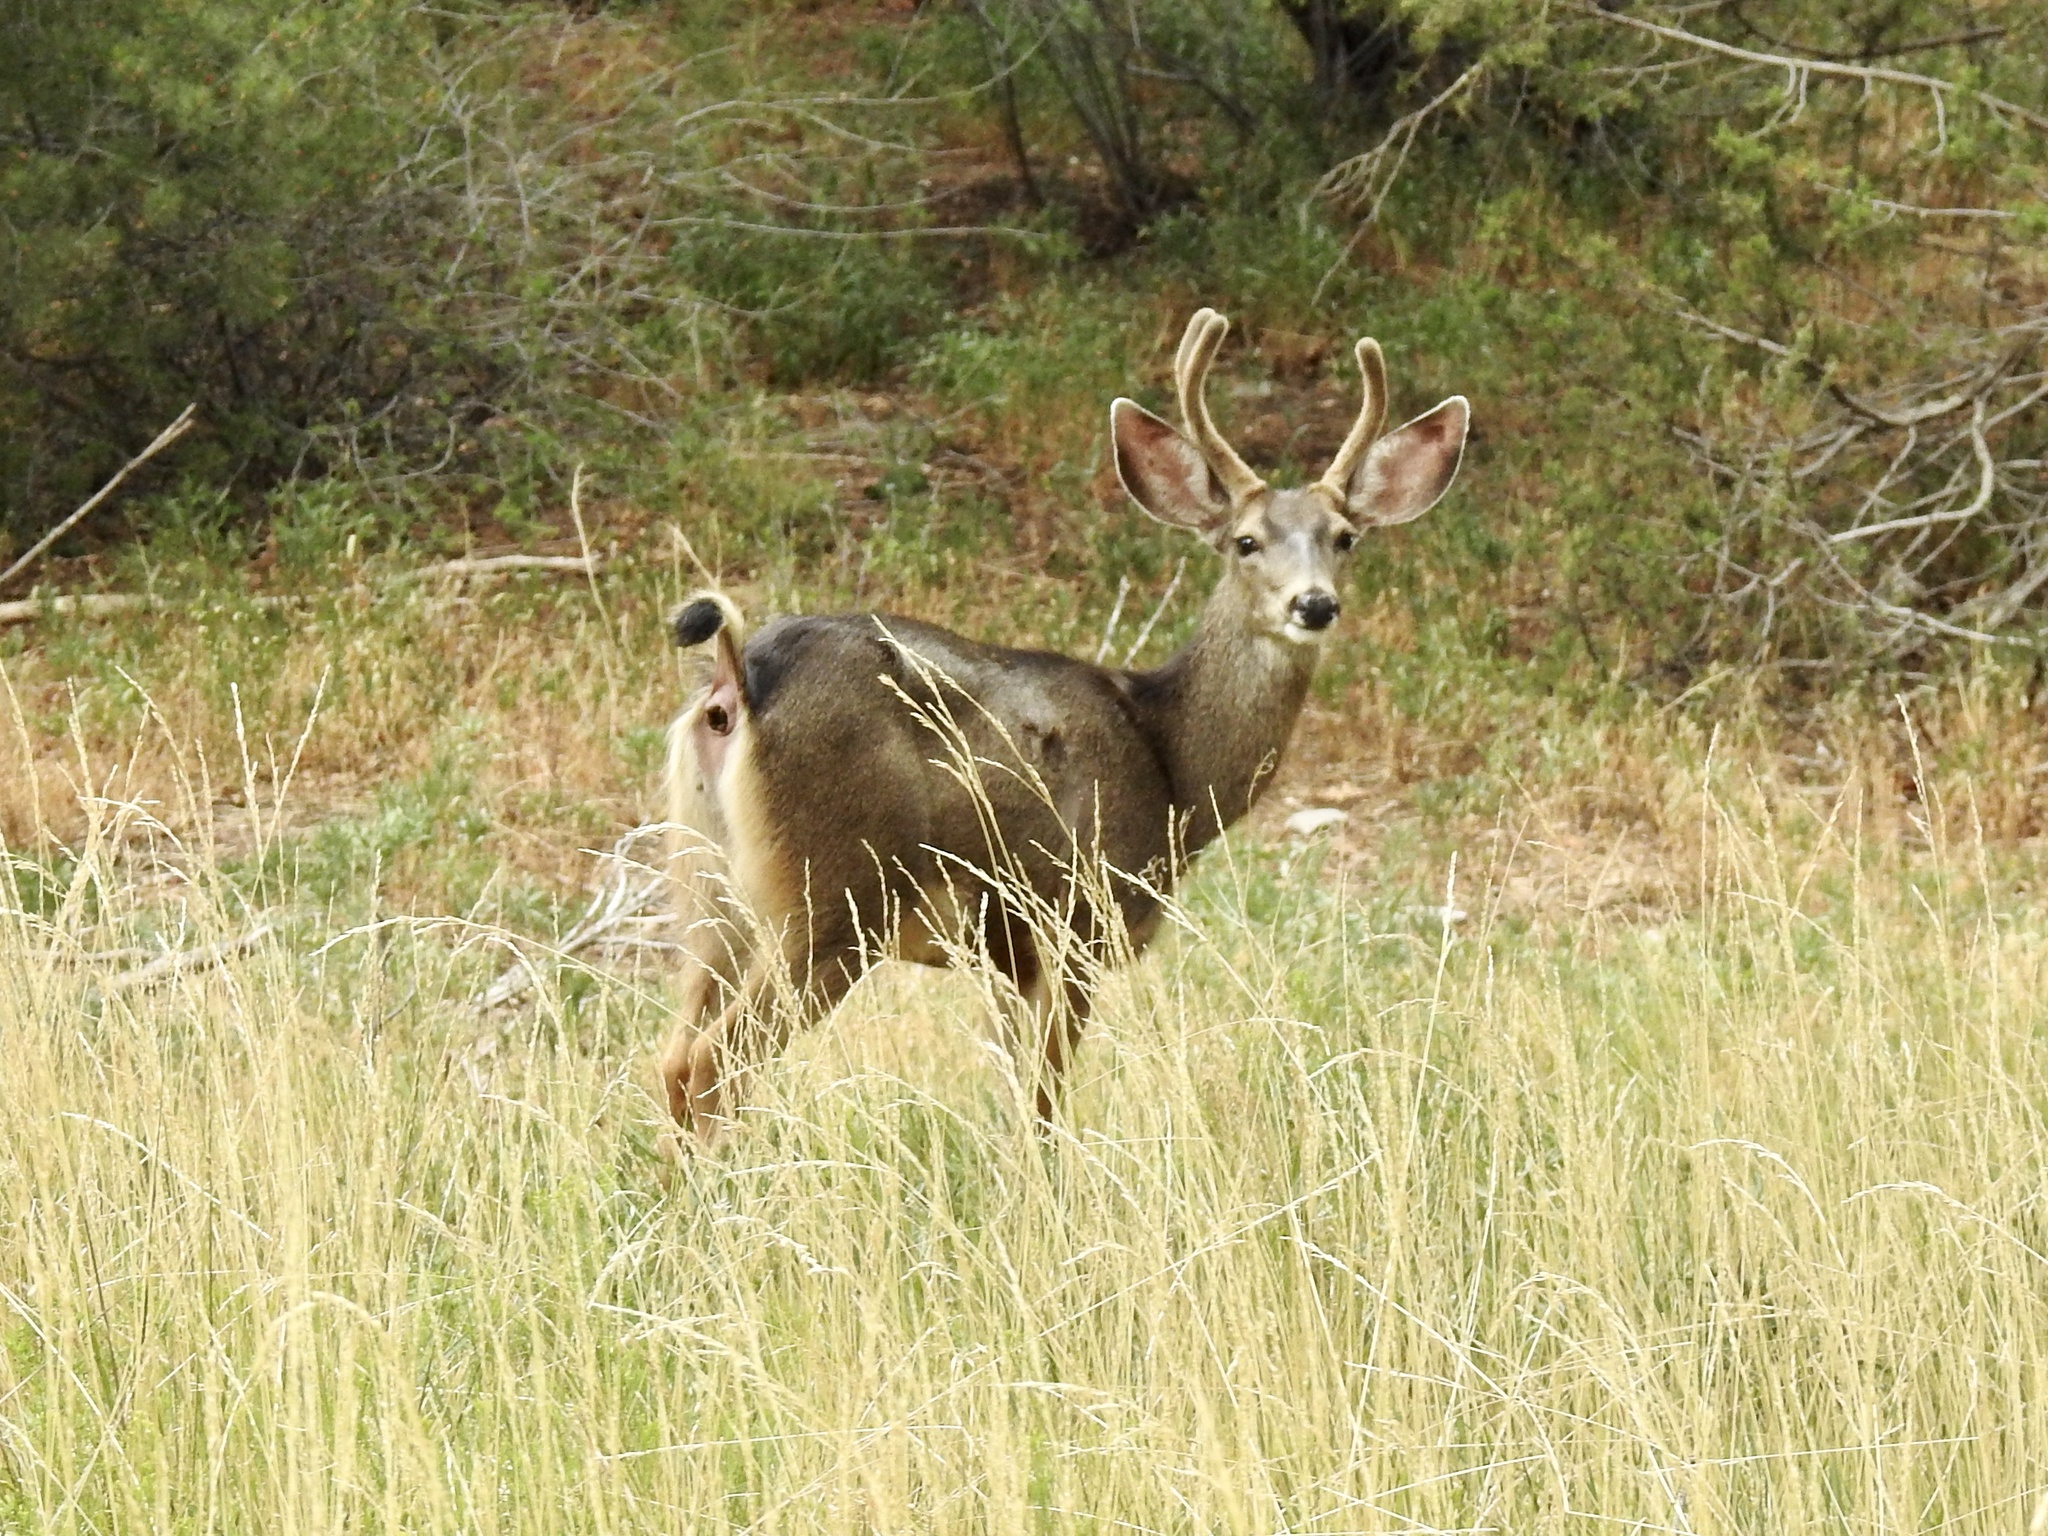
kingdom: Animalia
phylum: Chordata
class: Mammalia
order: Artiodactyla
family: Cervidae
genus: Odocoileus
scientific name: Odocoileus hemionus
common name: Mule deer
